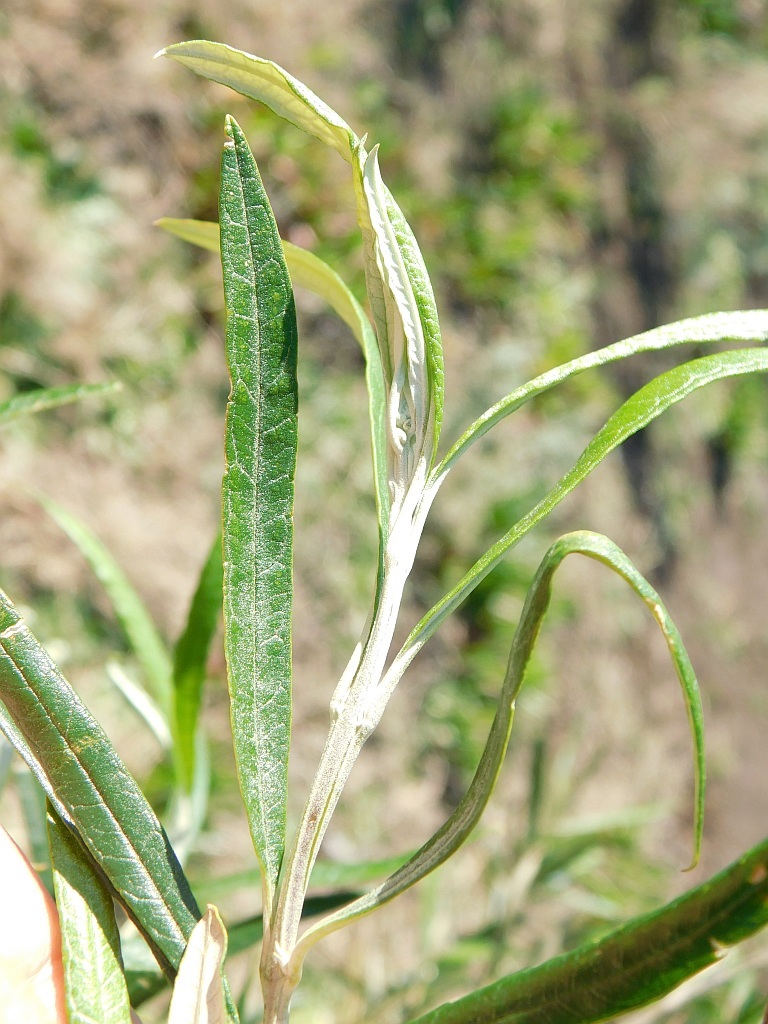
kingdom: Plantae
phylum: Tracheophyta
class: Magnoliopsida
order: Lamiales
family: Scrophulariaceae
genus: Buddleja
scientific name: Buddleja saligna
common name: False olive
